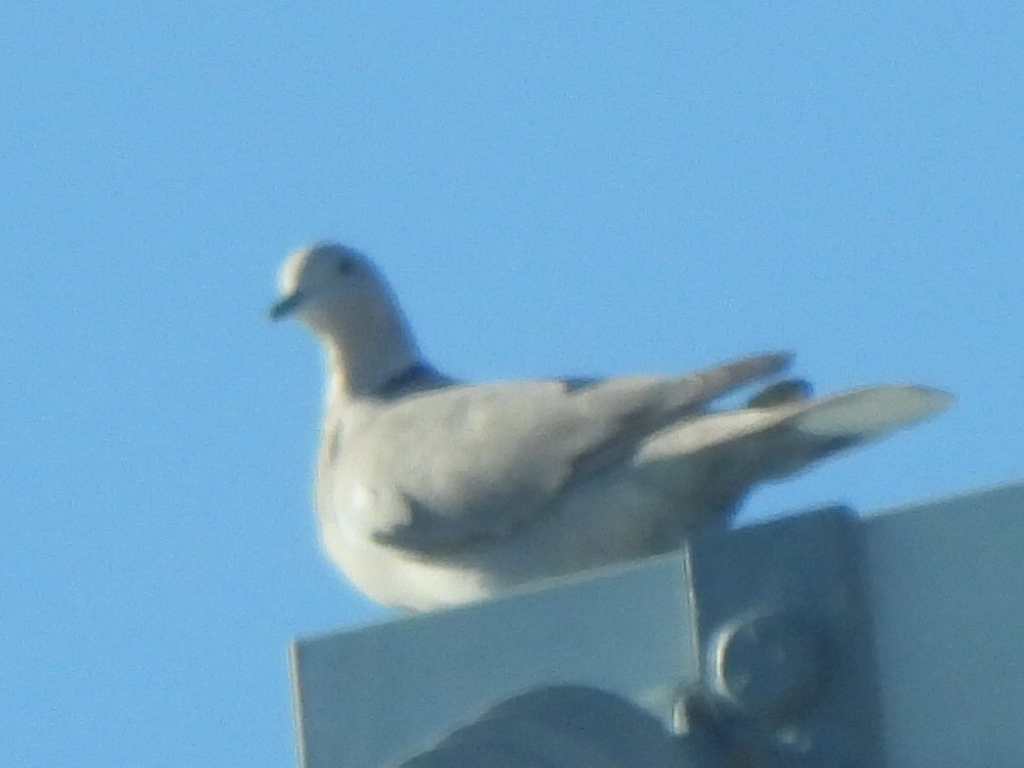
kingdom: Animalia
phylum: Chordata
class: Aves
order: Columbiformes
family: Columbidae
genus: Streptopelia
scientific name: Streptopelia decaocto
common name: Eurasian collared dove
